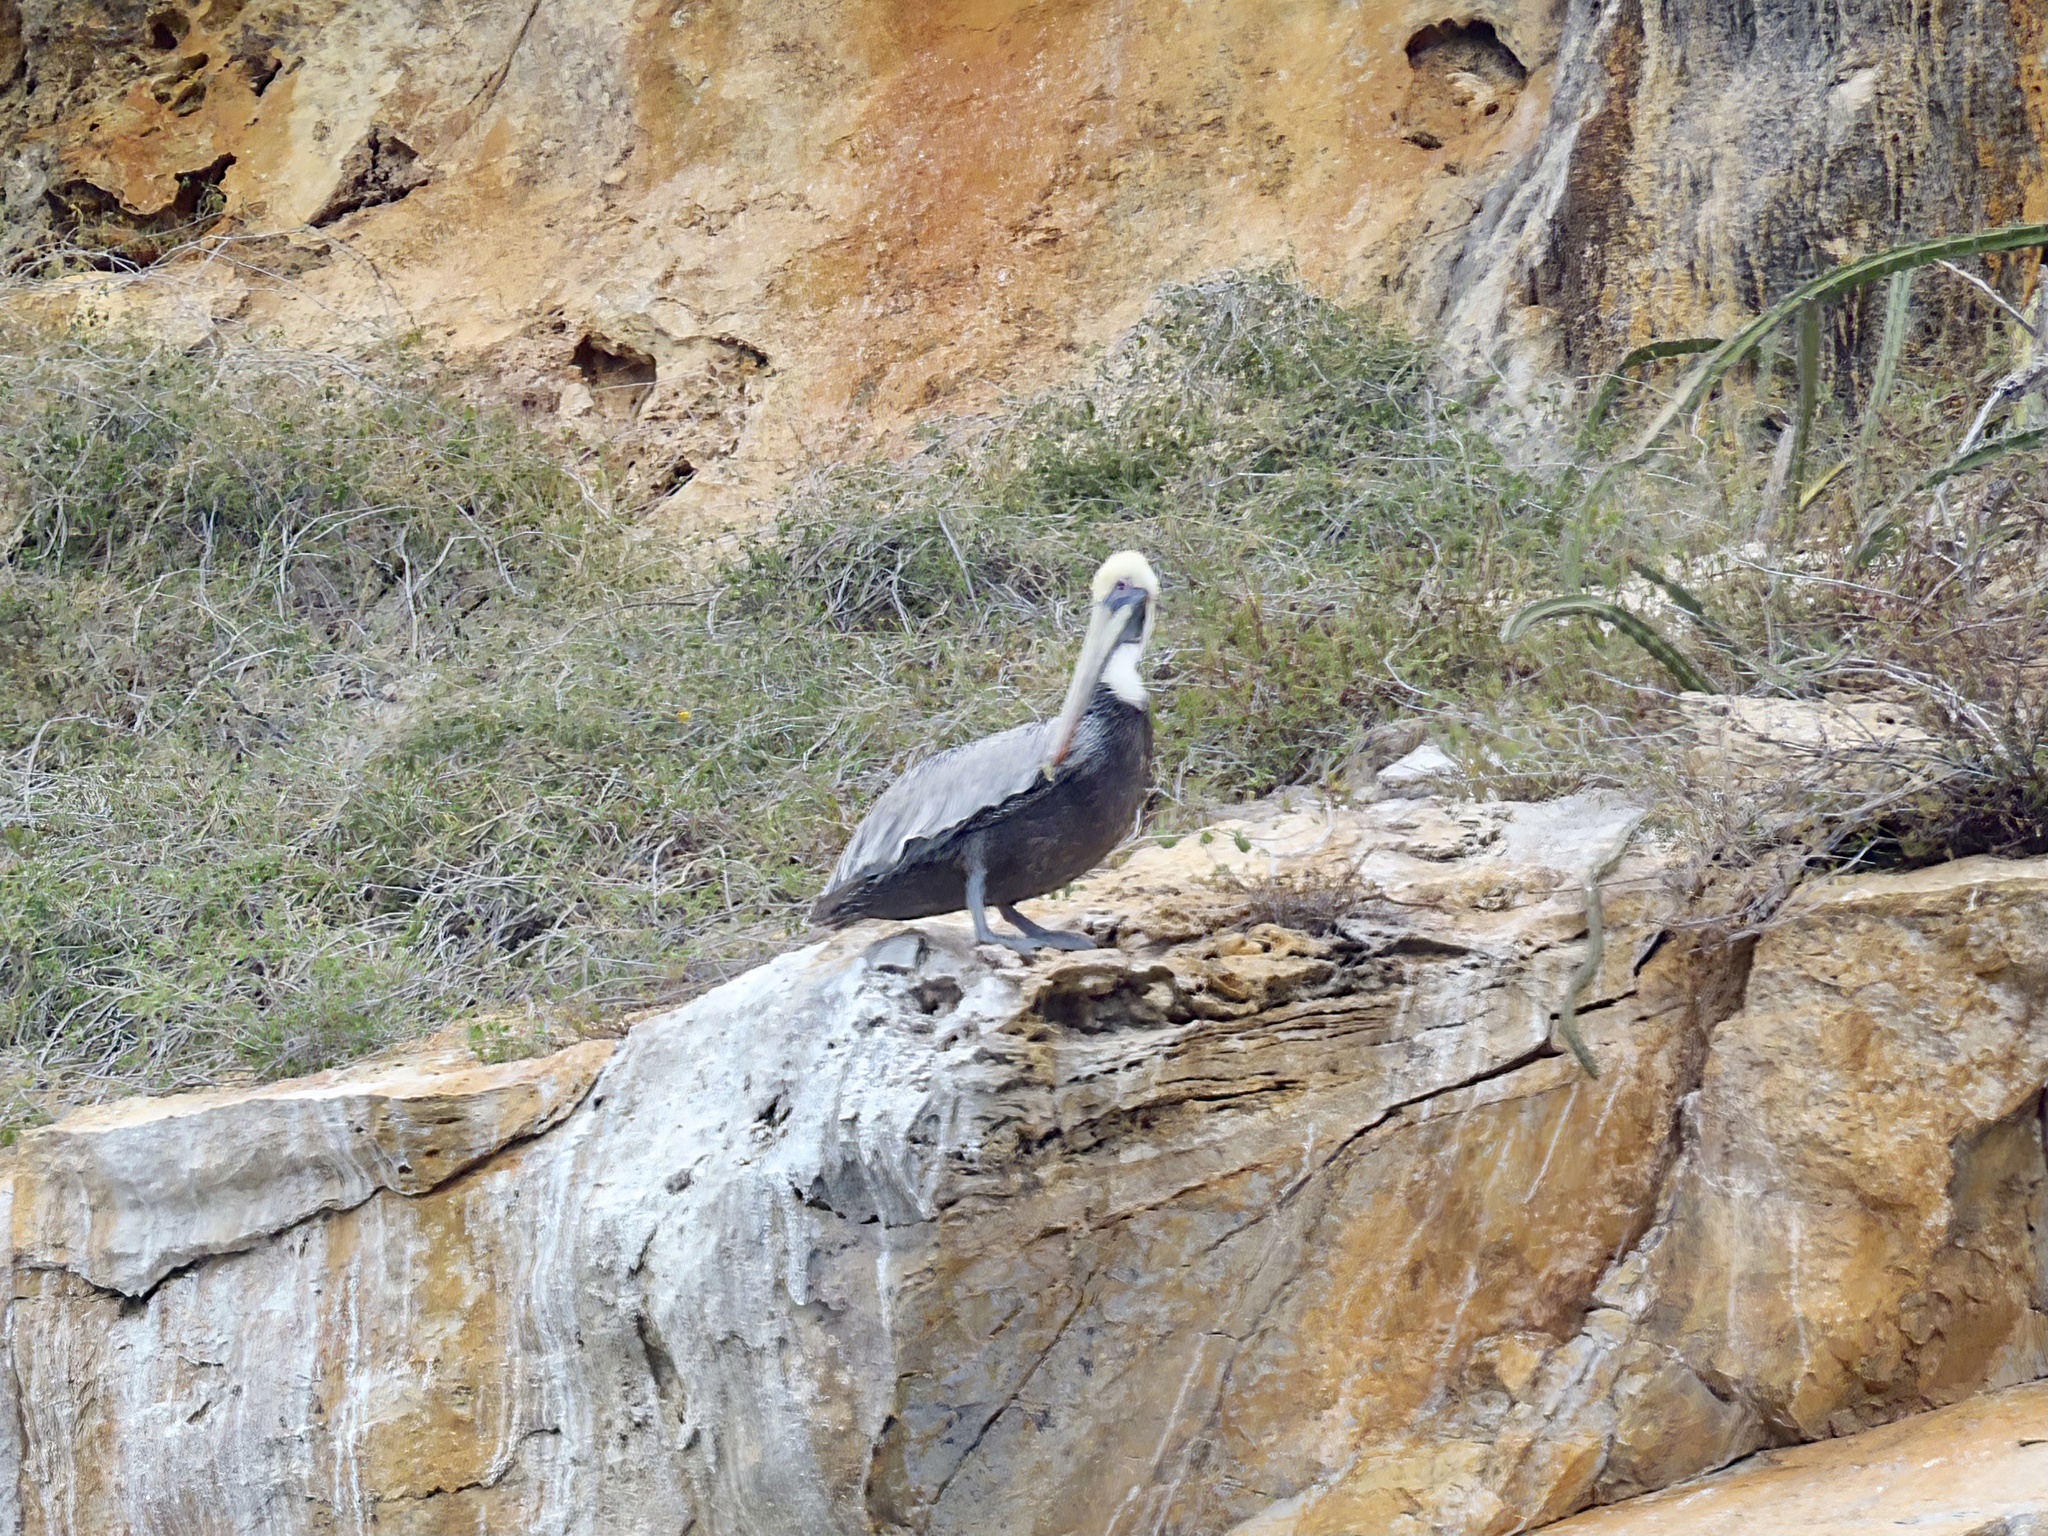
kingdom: Animalia
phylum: Chordata
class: Aves
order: Pelecaniformes
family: Pelecanidae
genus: Pelecanus
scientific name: Pelecanus occidentalis
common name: Brown pelican
